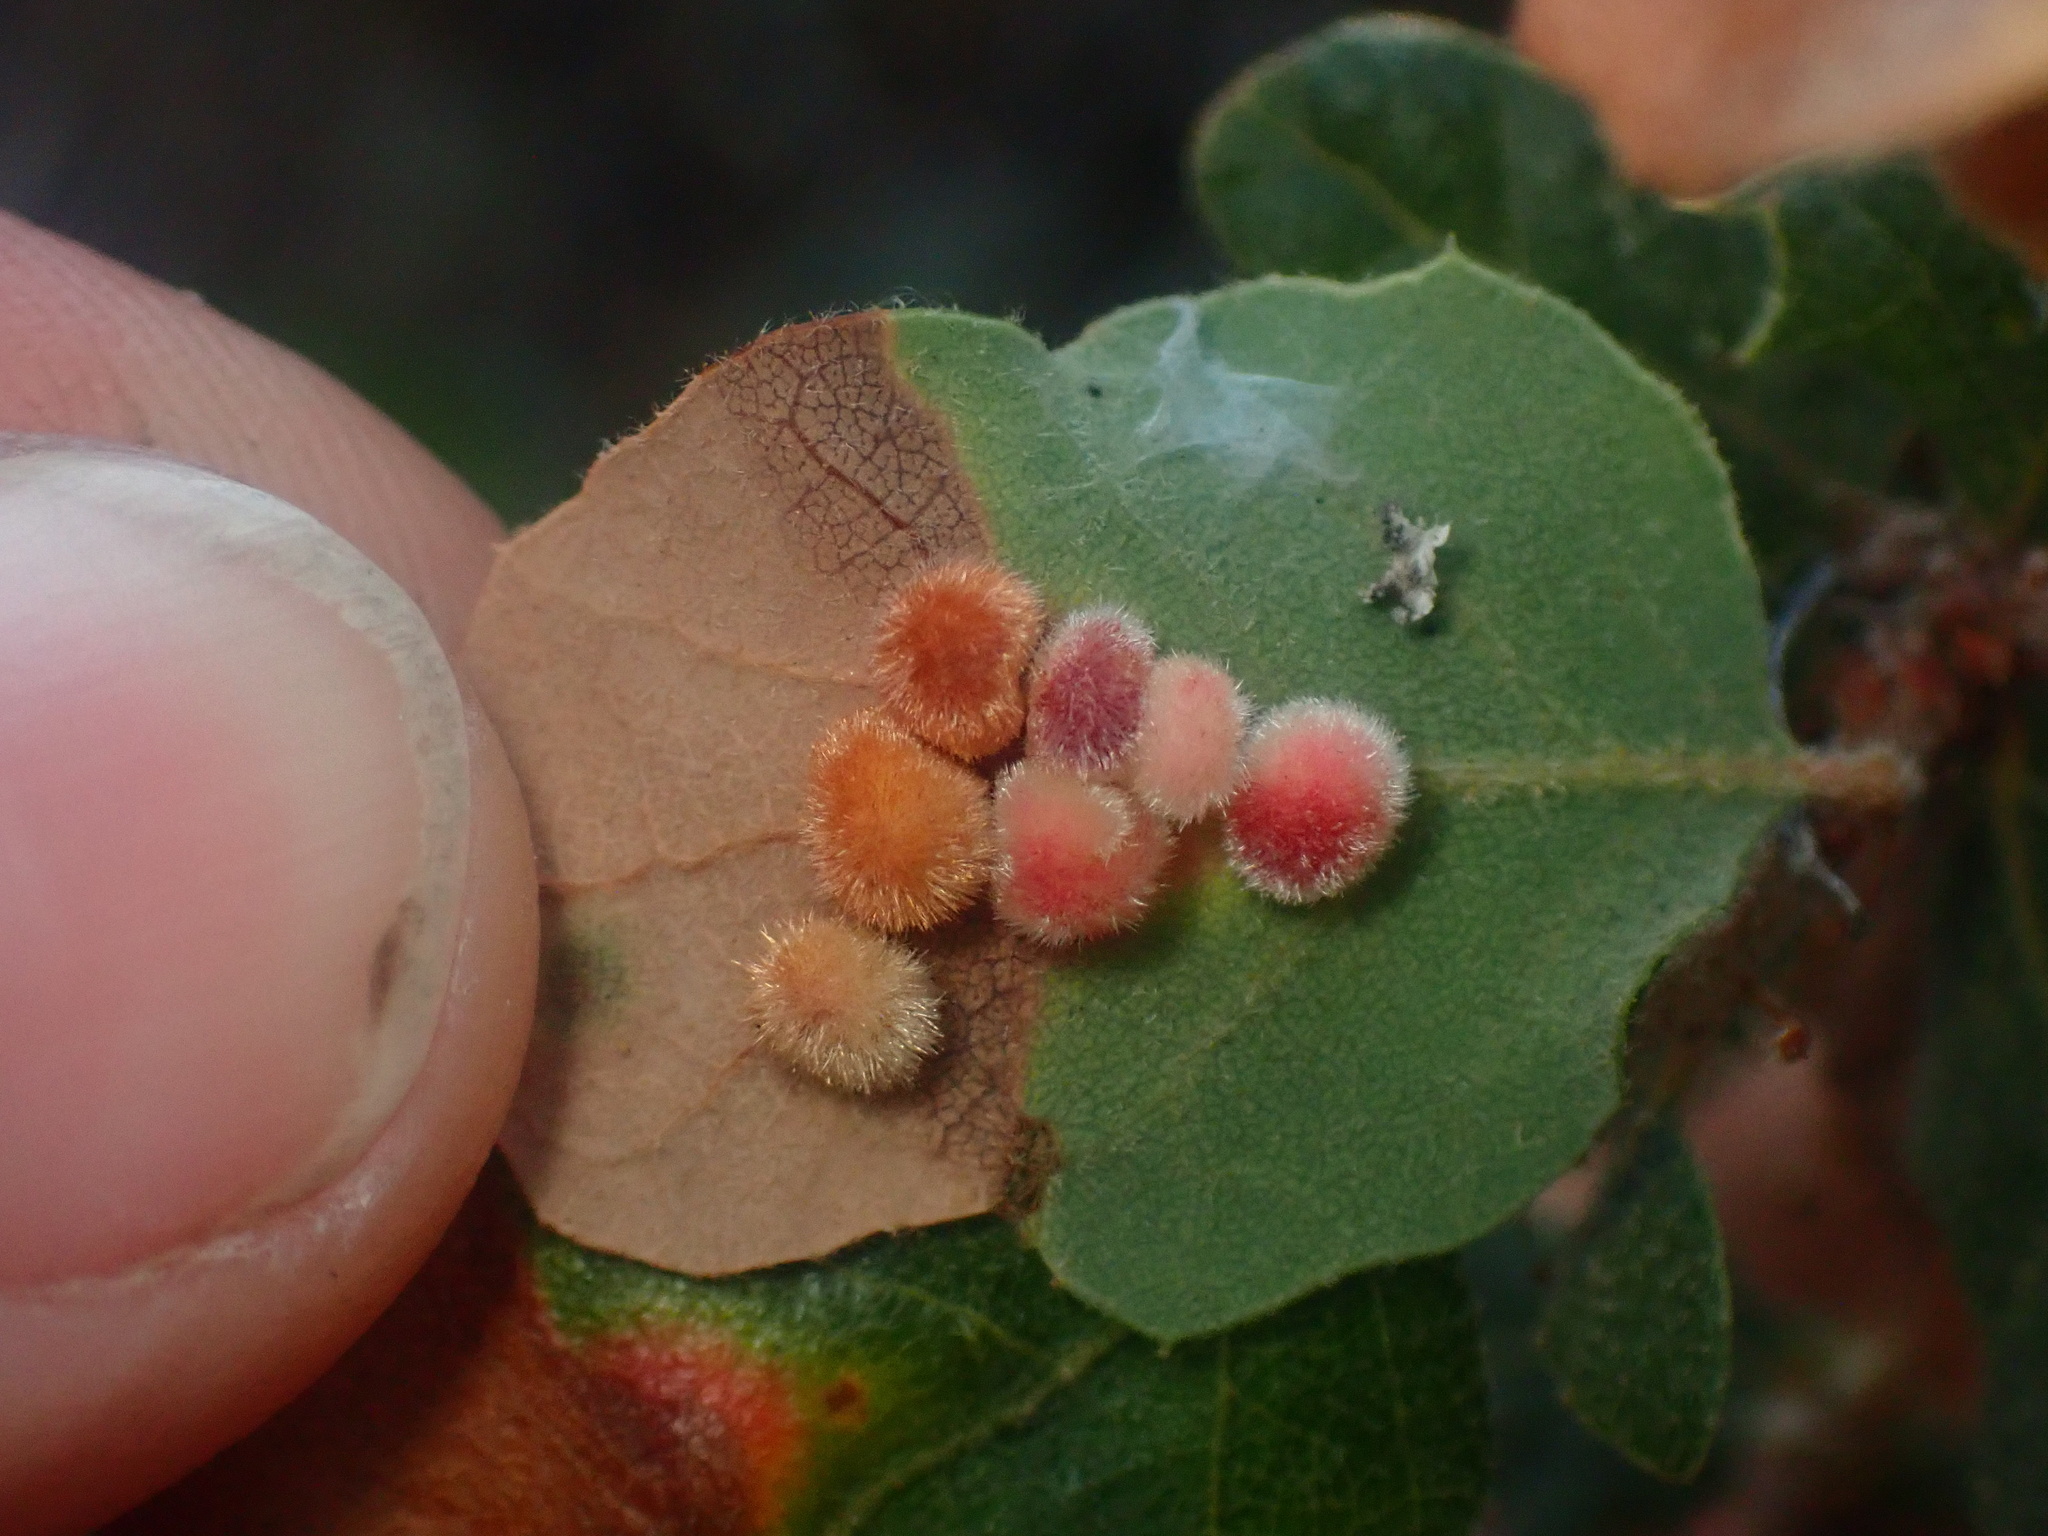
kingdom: Animalia
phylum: Arthropoda
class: Insecta
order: Hymenoptera
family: Cynipidae
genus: Atrusca
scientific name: Atrusca
